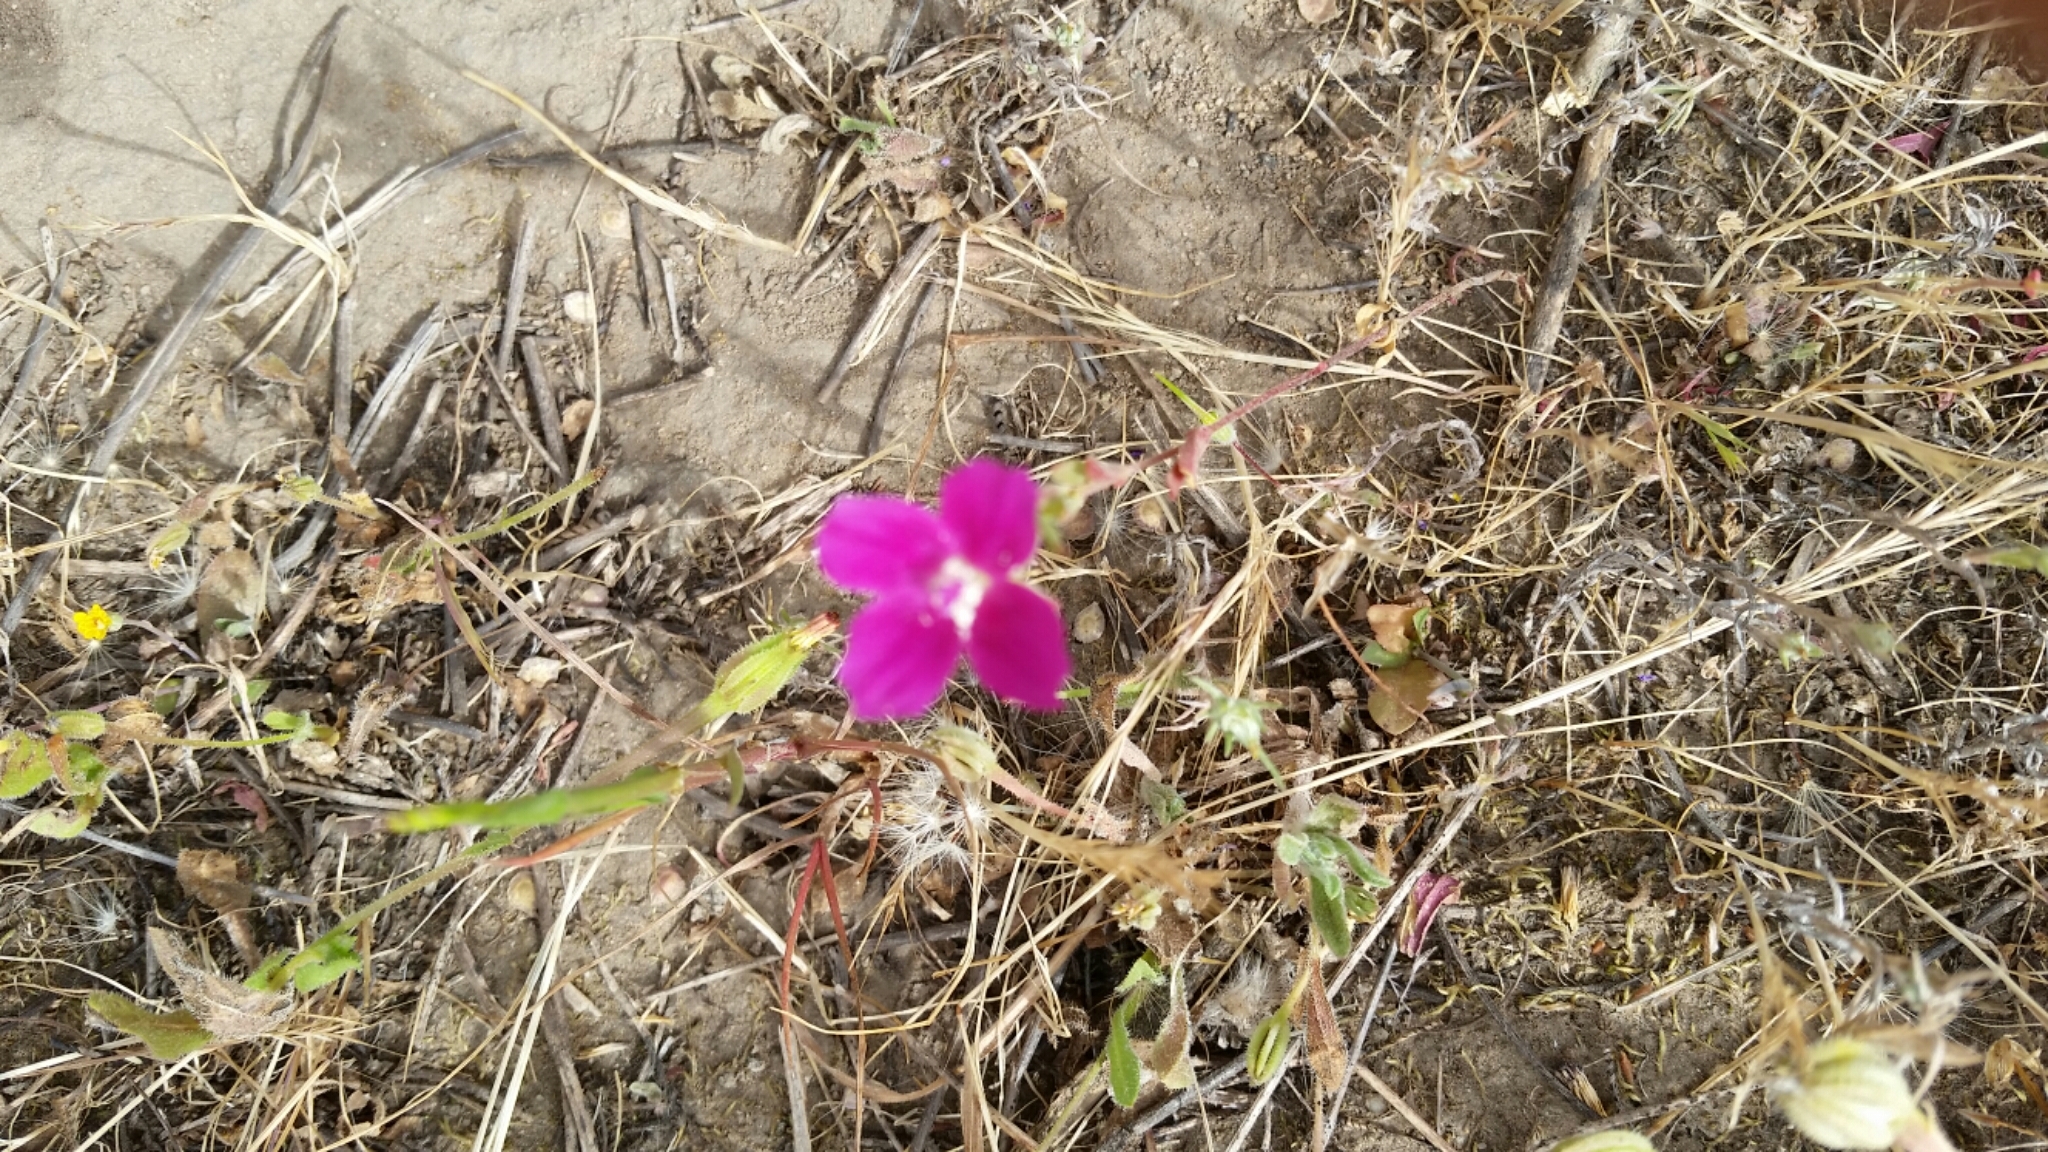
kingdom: Plantae
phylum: Tracheophyta
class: Magnoliopsida
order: Myrtales
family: Onagraceae
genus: Clarkia
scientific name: Clarkia purpurea
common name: Purple clarkia
